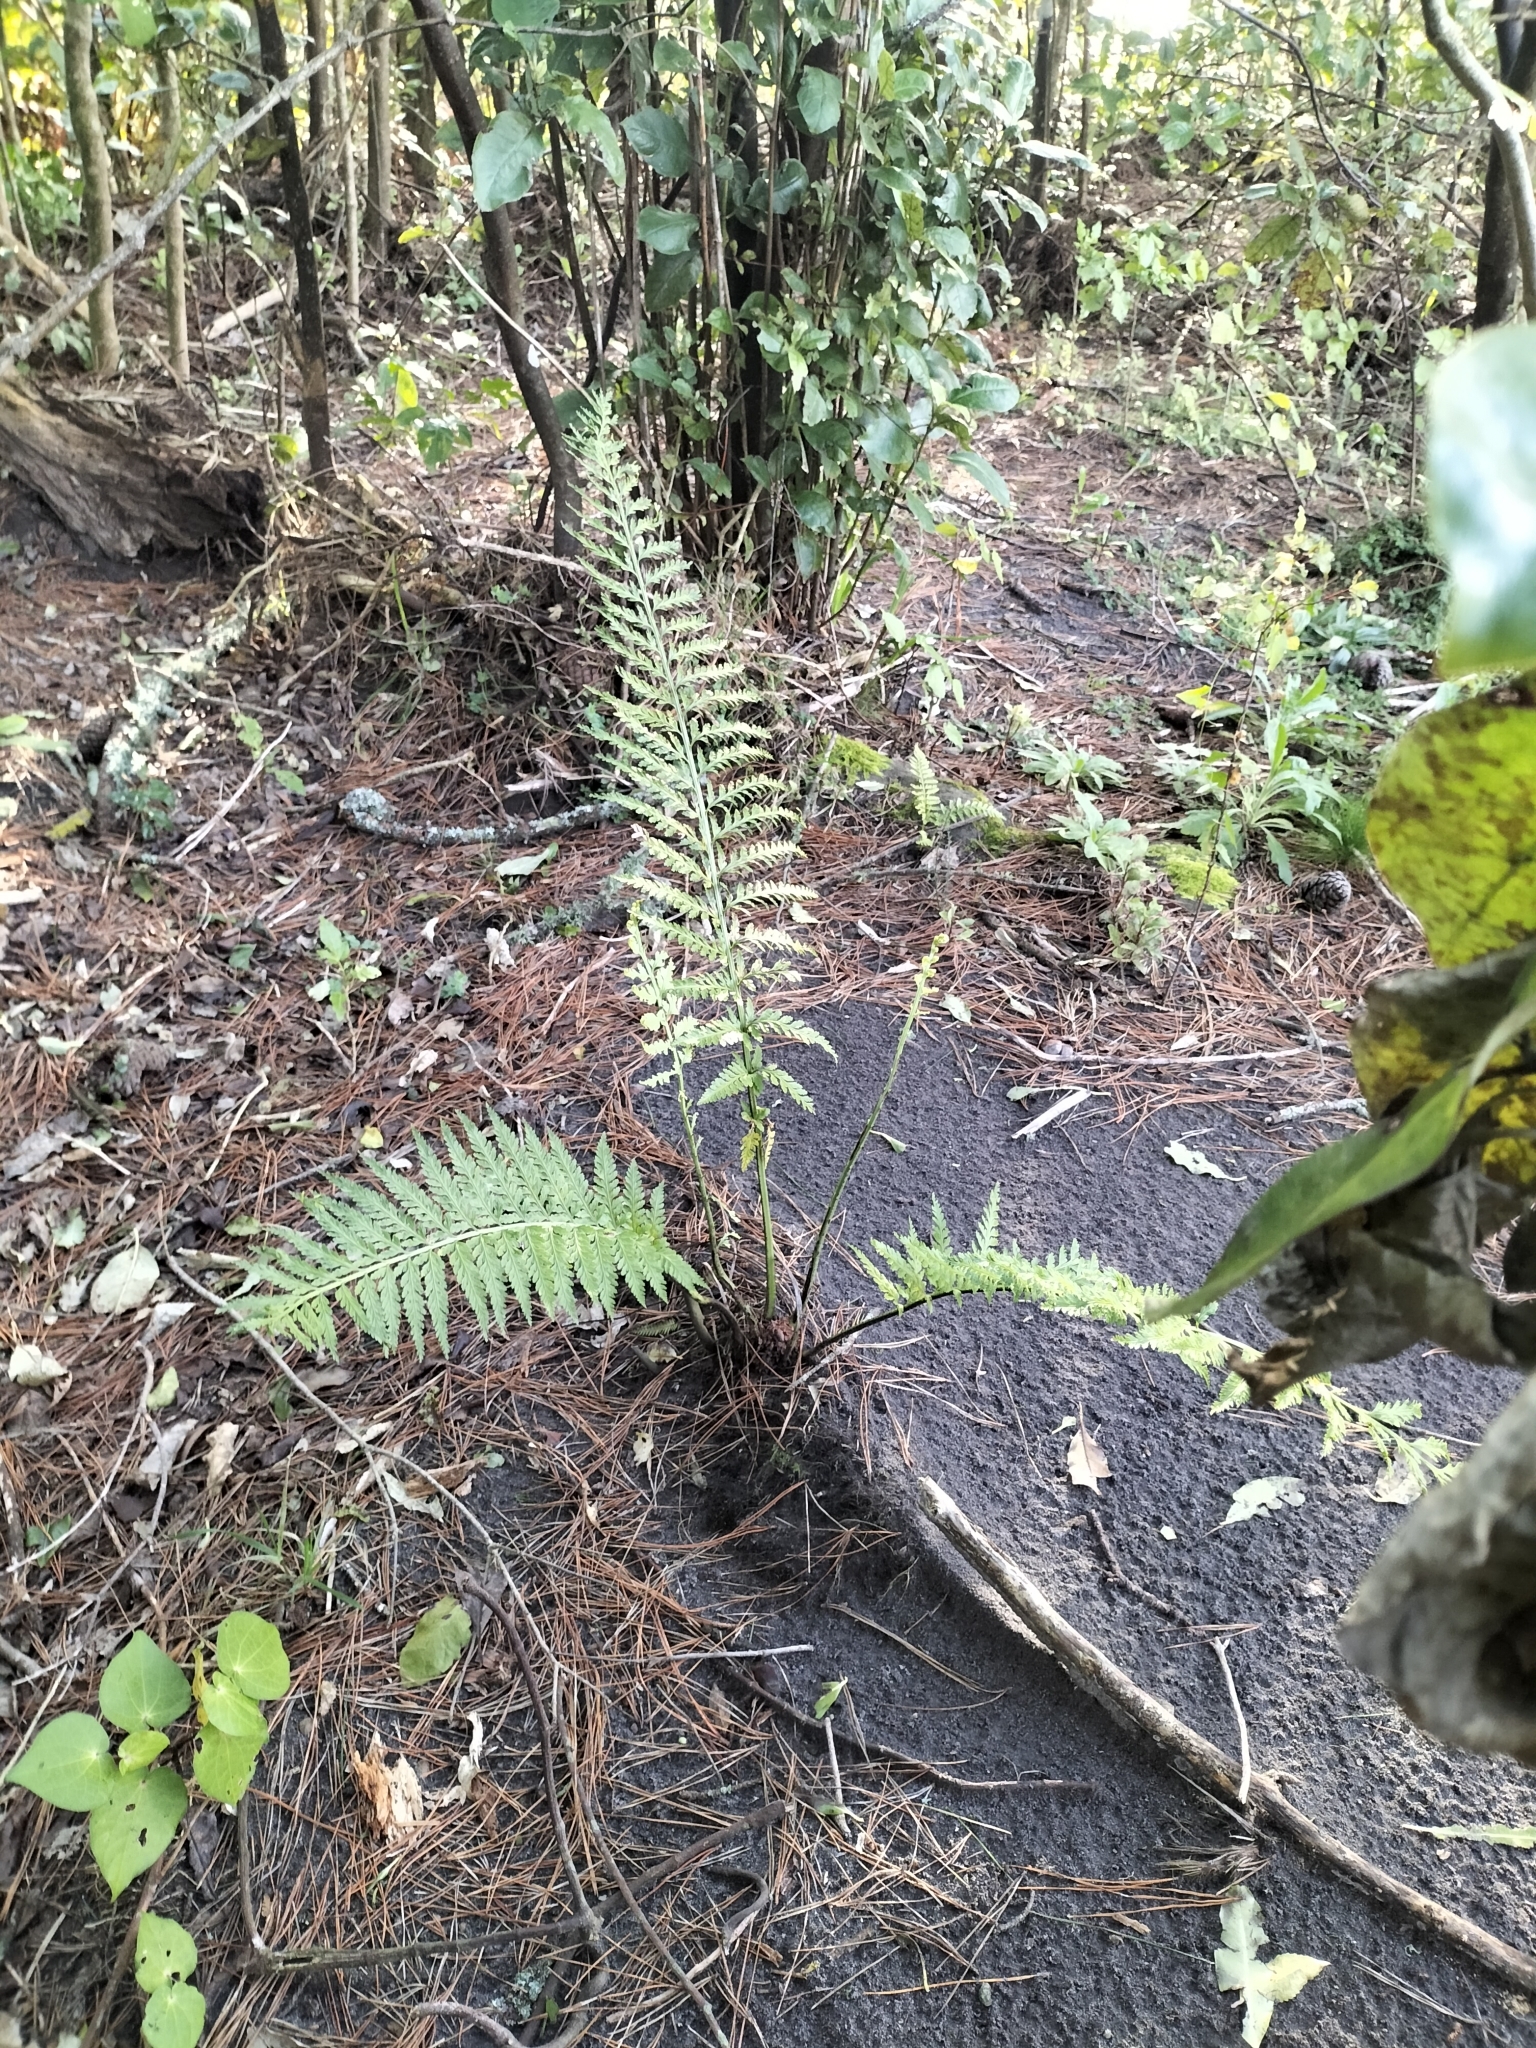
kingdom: Plantae
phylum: Tracheophyta
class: Polypodiopsida
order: Polypodiales
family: Aspleniaceae
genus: Asplenium
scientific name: Asplenium bulbiferum
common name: Mother fern
